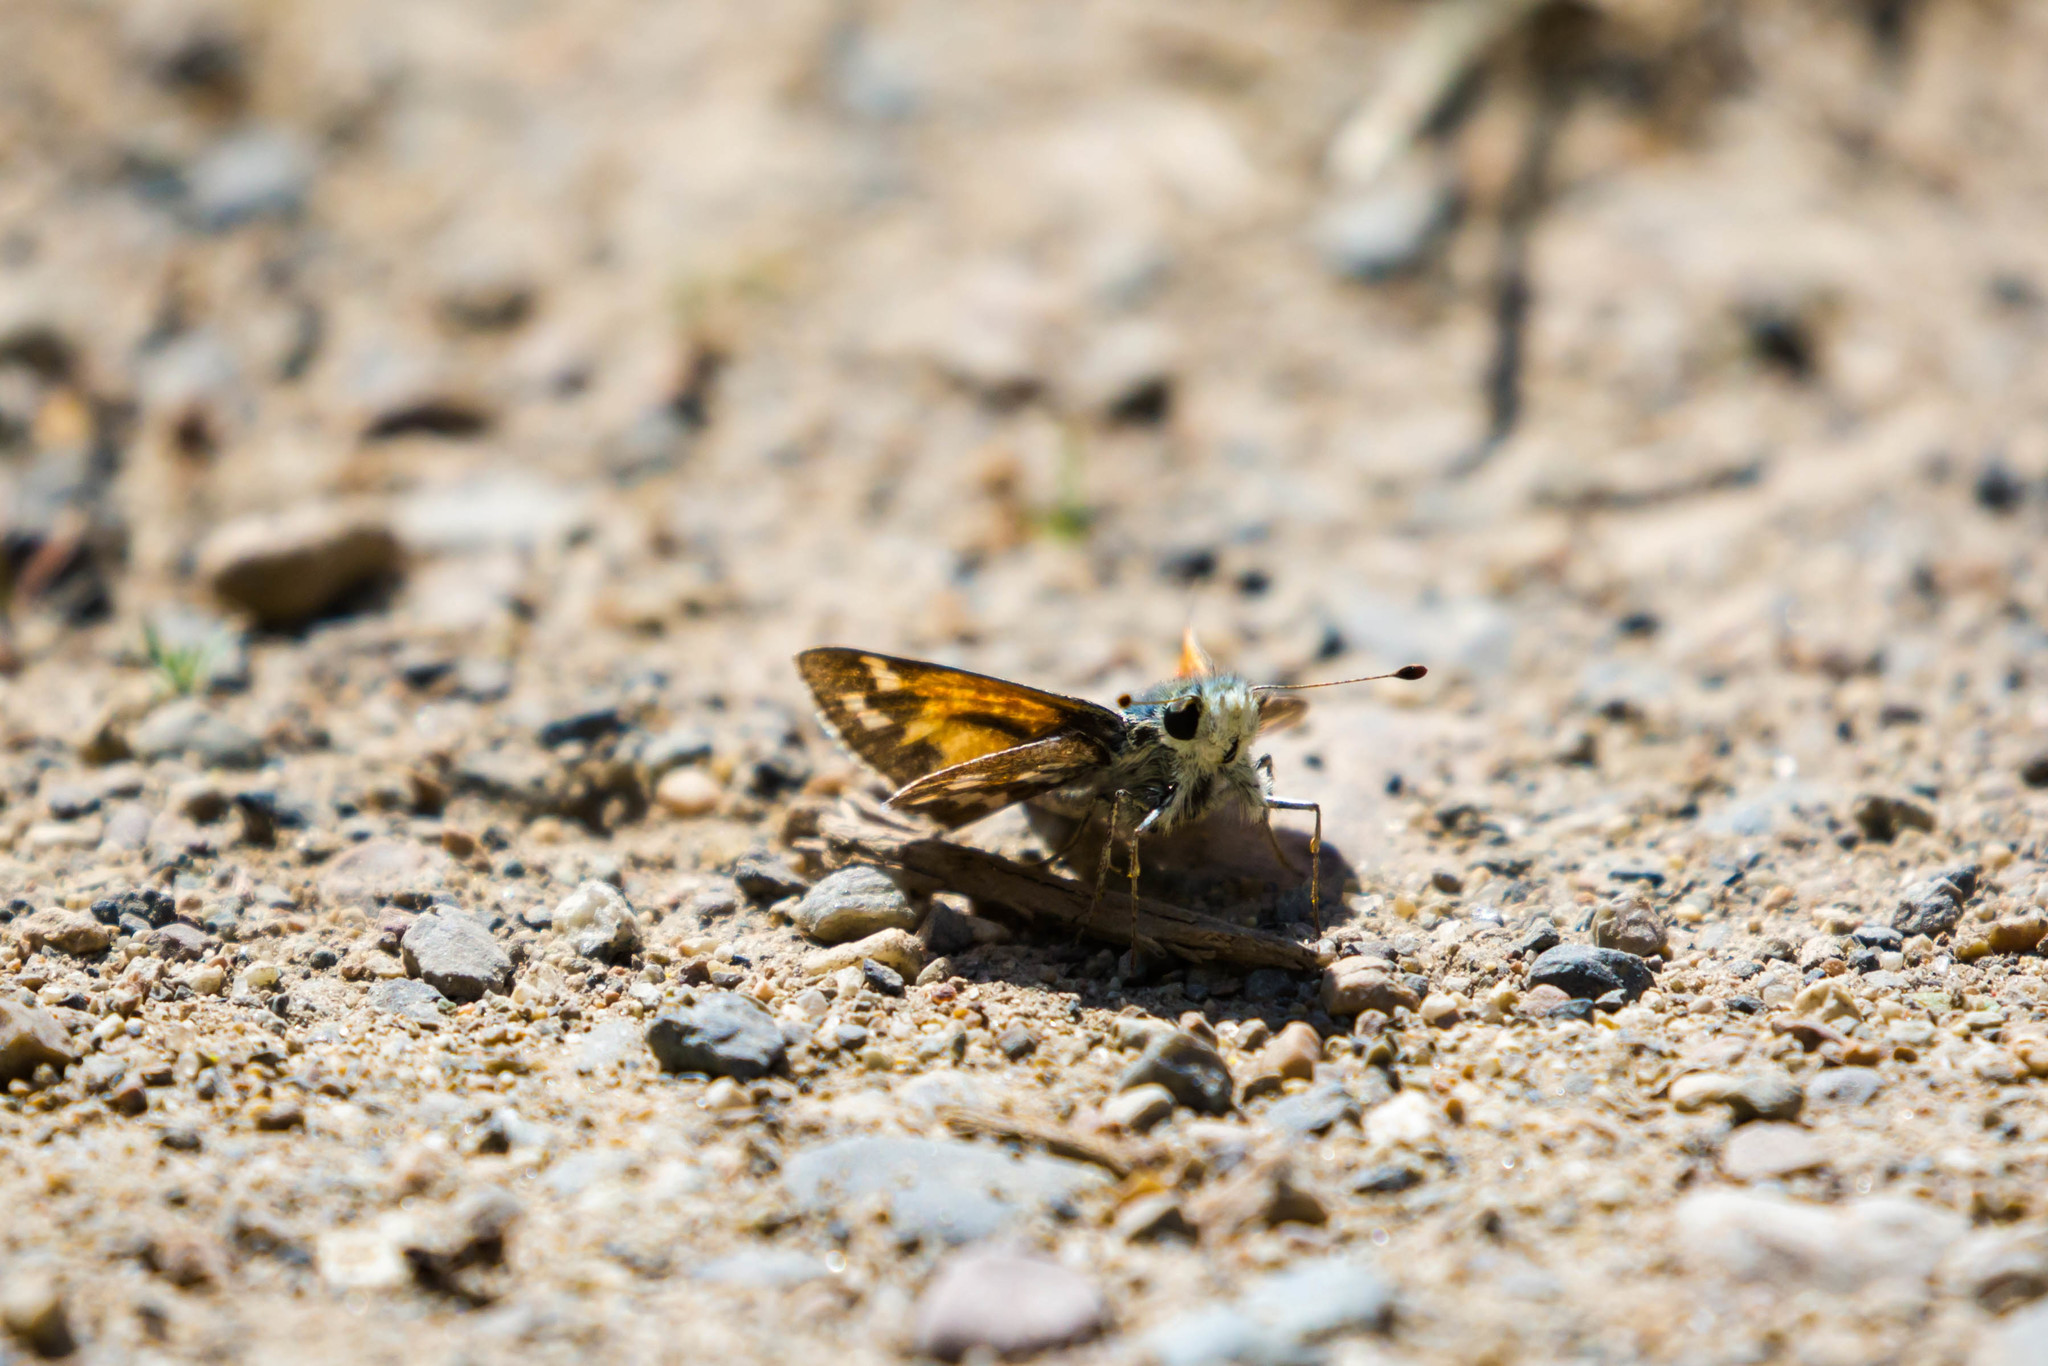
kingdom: Animalia
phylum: Arthropoda
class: Insecta
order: Lepidoptera
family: Hesperiidae
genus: Polites
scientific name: Polites sabuleti
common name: Sandhill skipper
